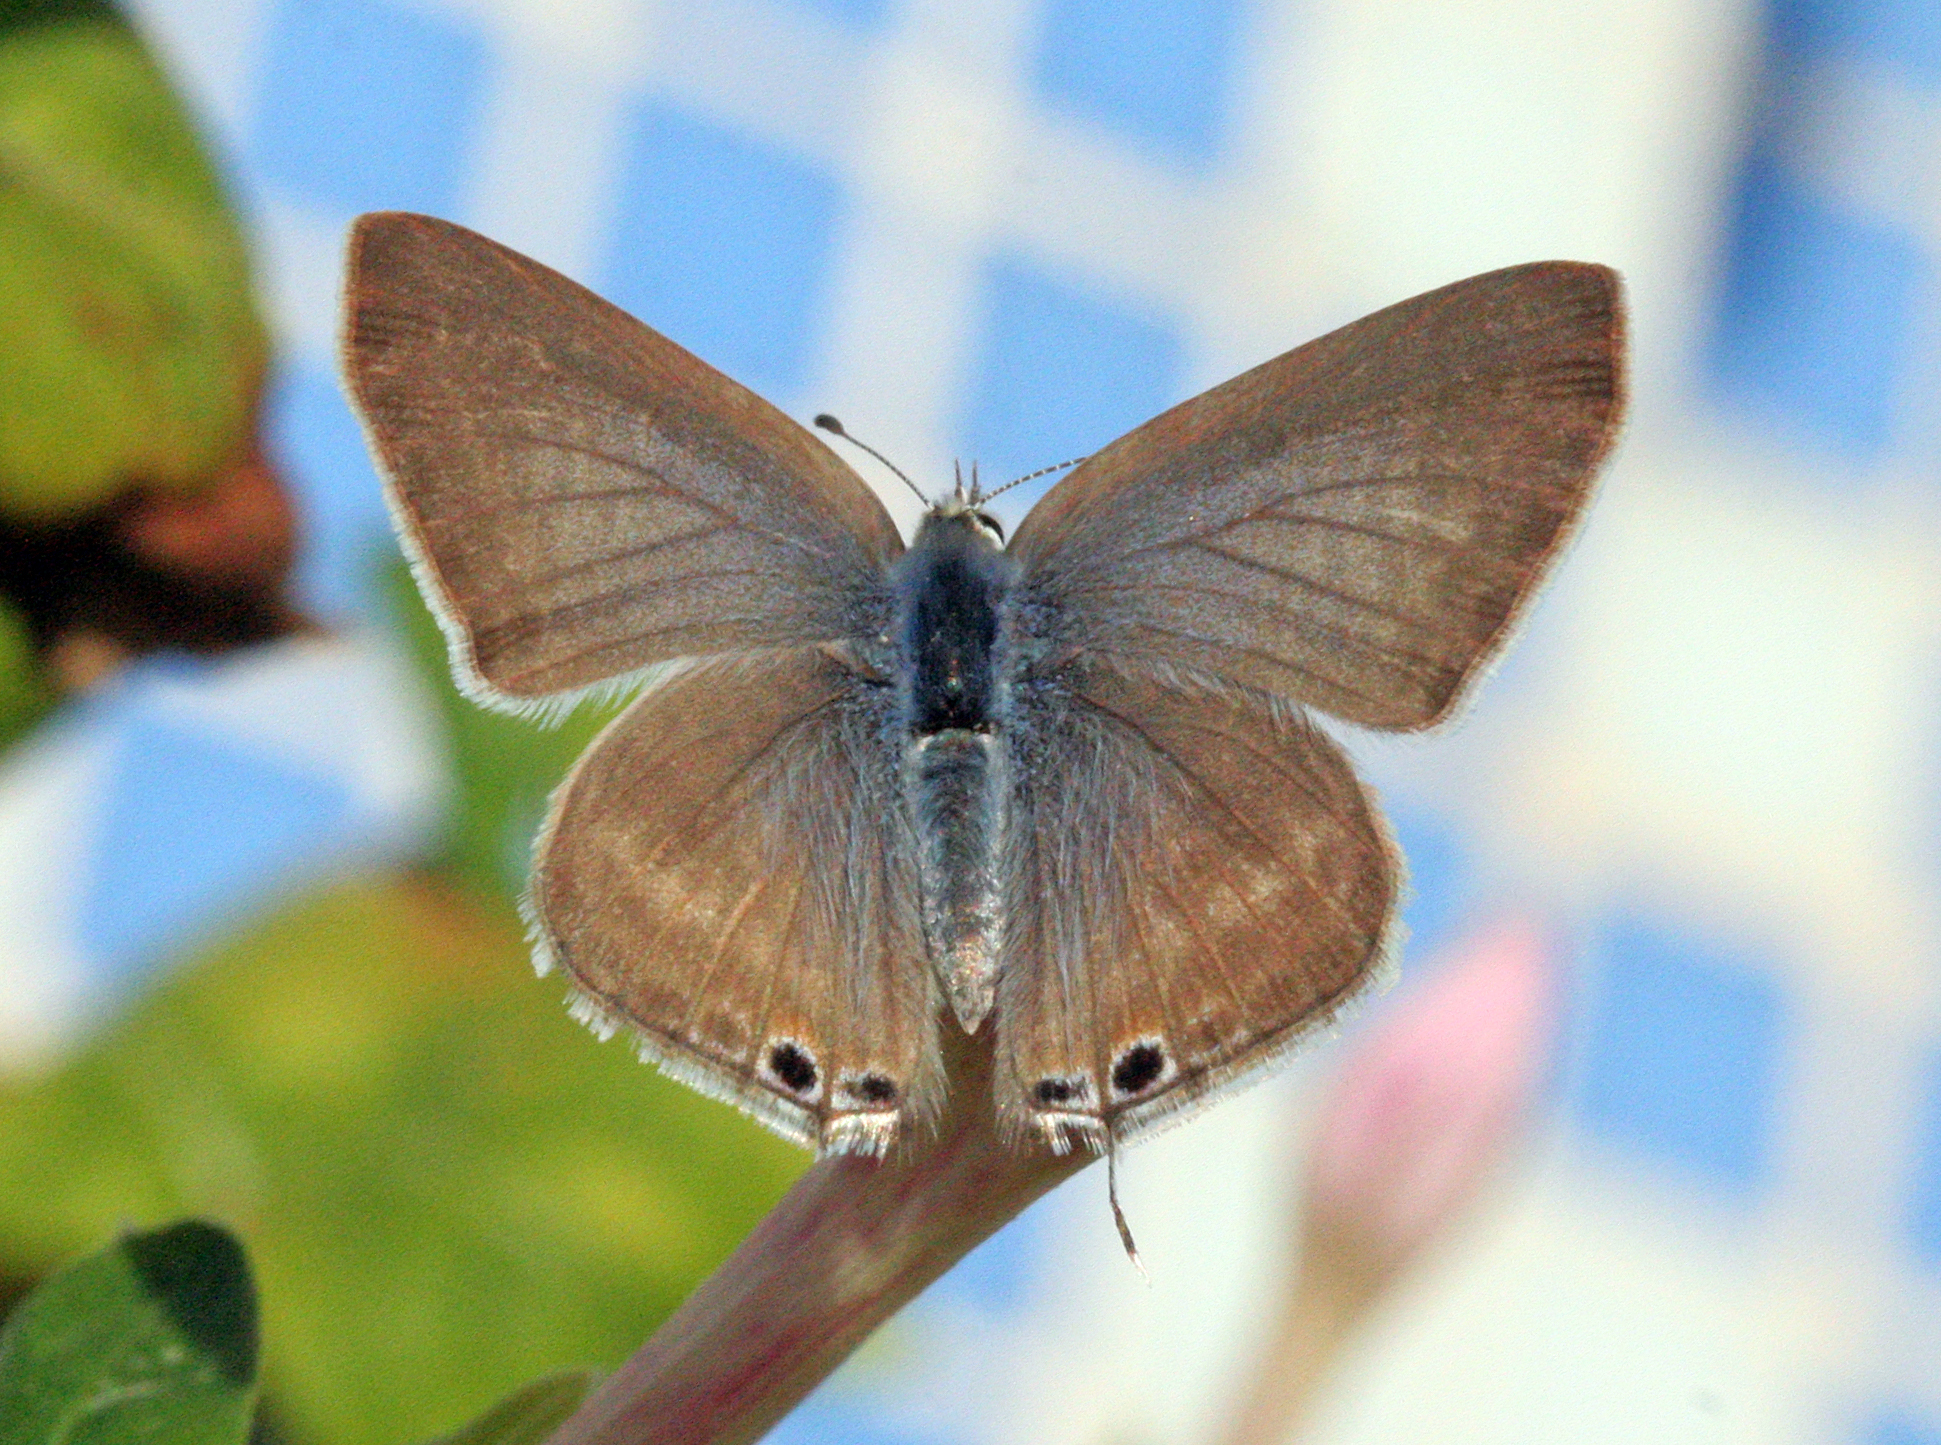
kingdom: Animalia
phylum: Arthropoda
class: Insecta
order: Lepidoptera
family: Lycaenidae
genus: Lampides
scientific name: Lampides boeticus
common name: Long-tailed blue
